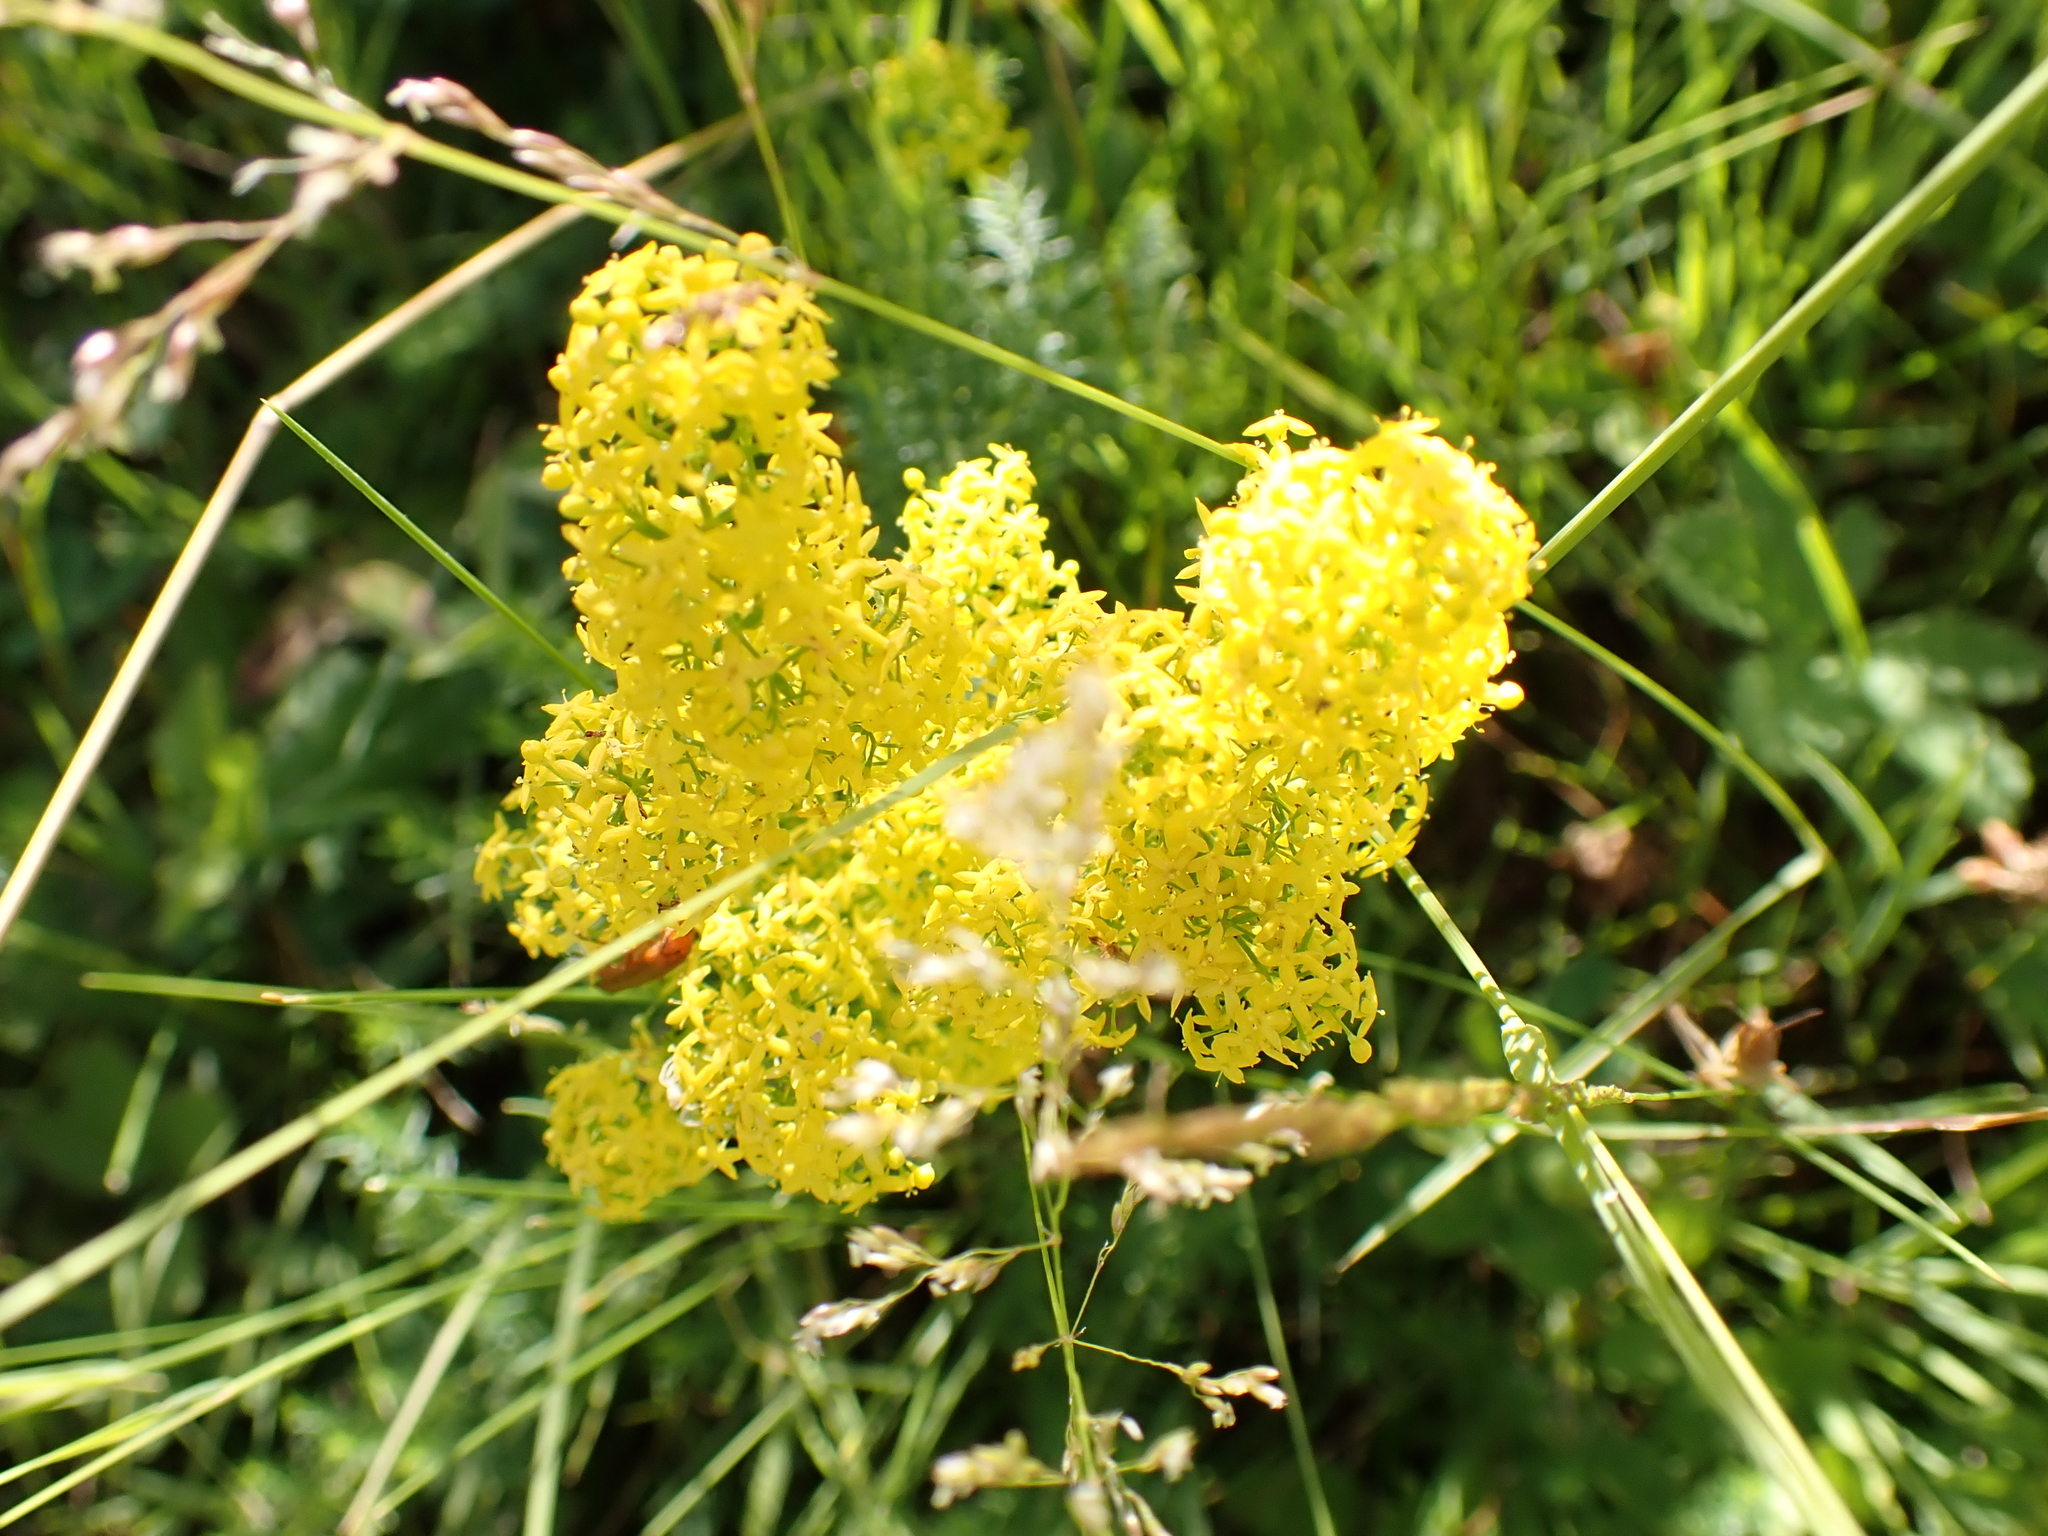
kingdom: Plantae
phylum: Tracheophyta
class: Magnoliopsida
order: Gentianales
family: Rubiaceae
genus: Galium
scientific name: Galium verum
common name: Lady's bedstraw
